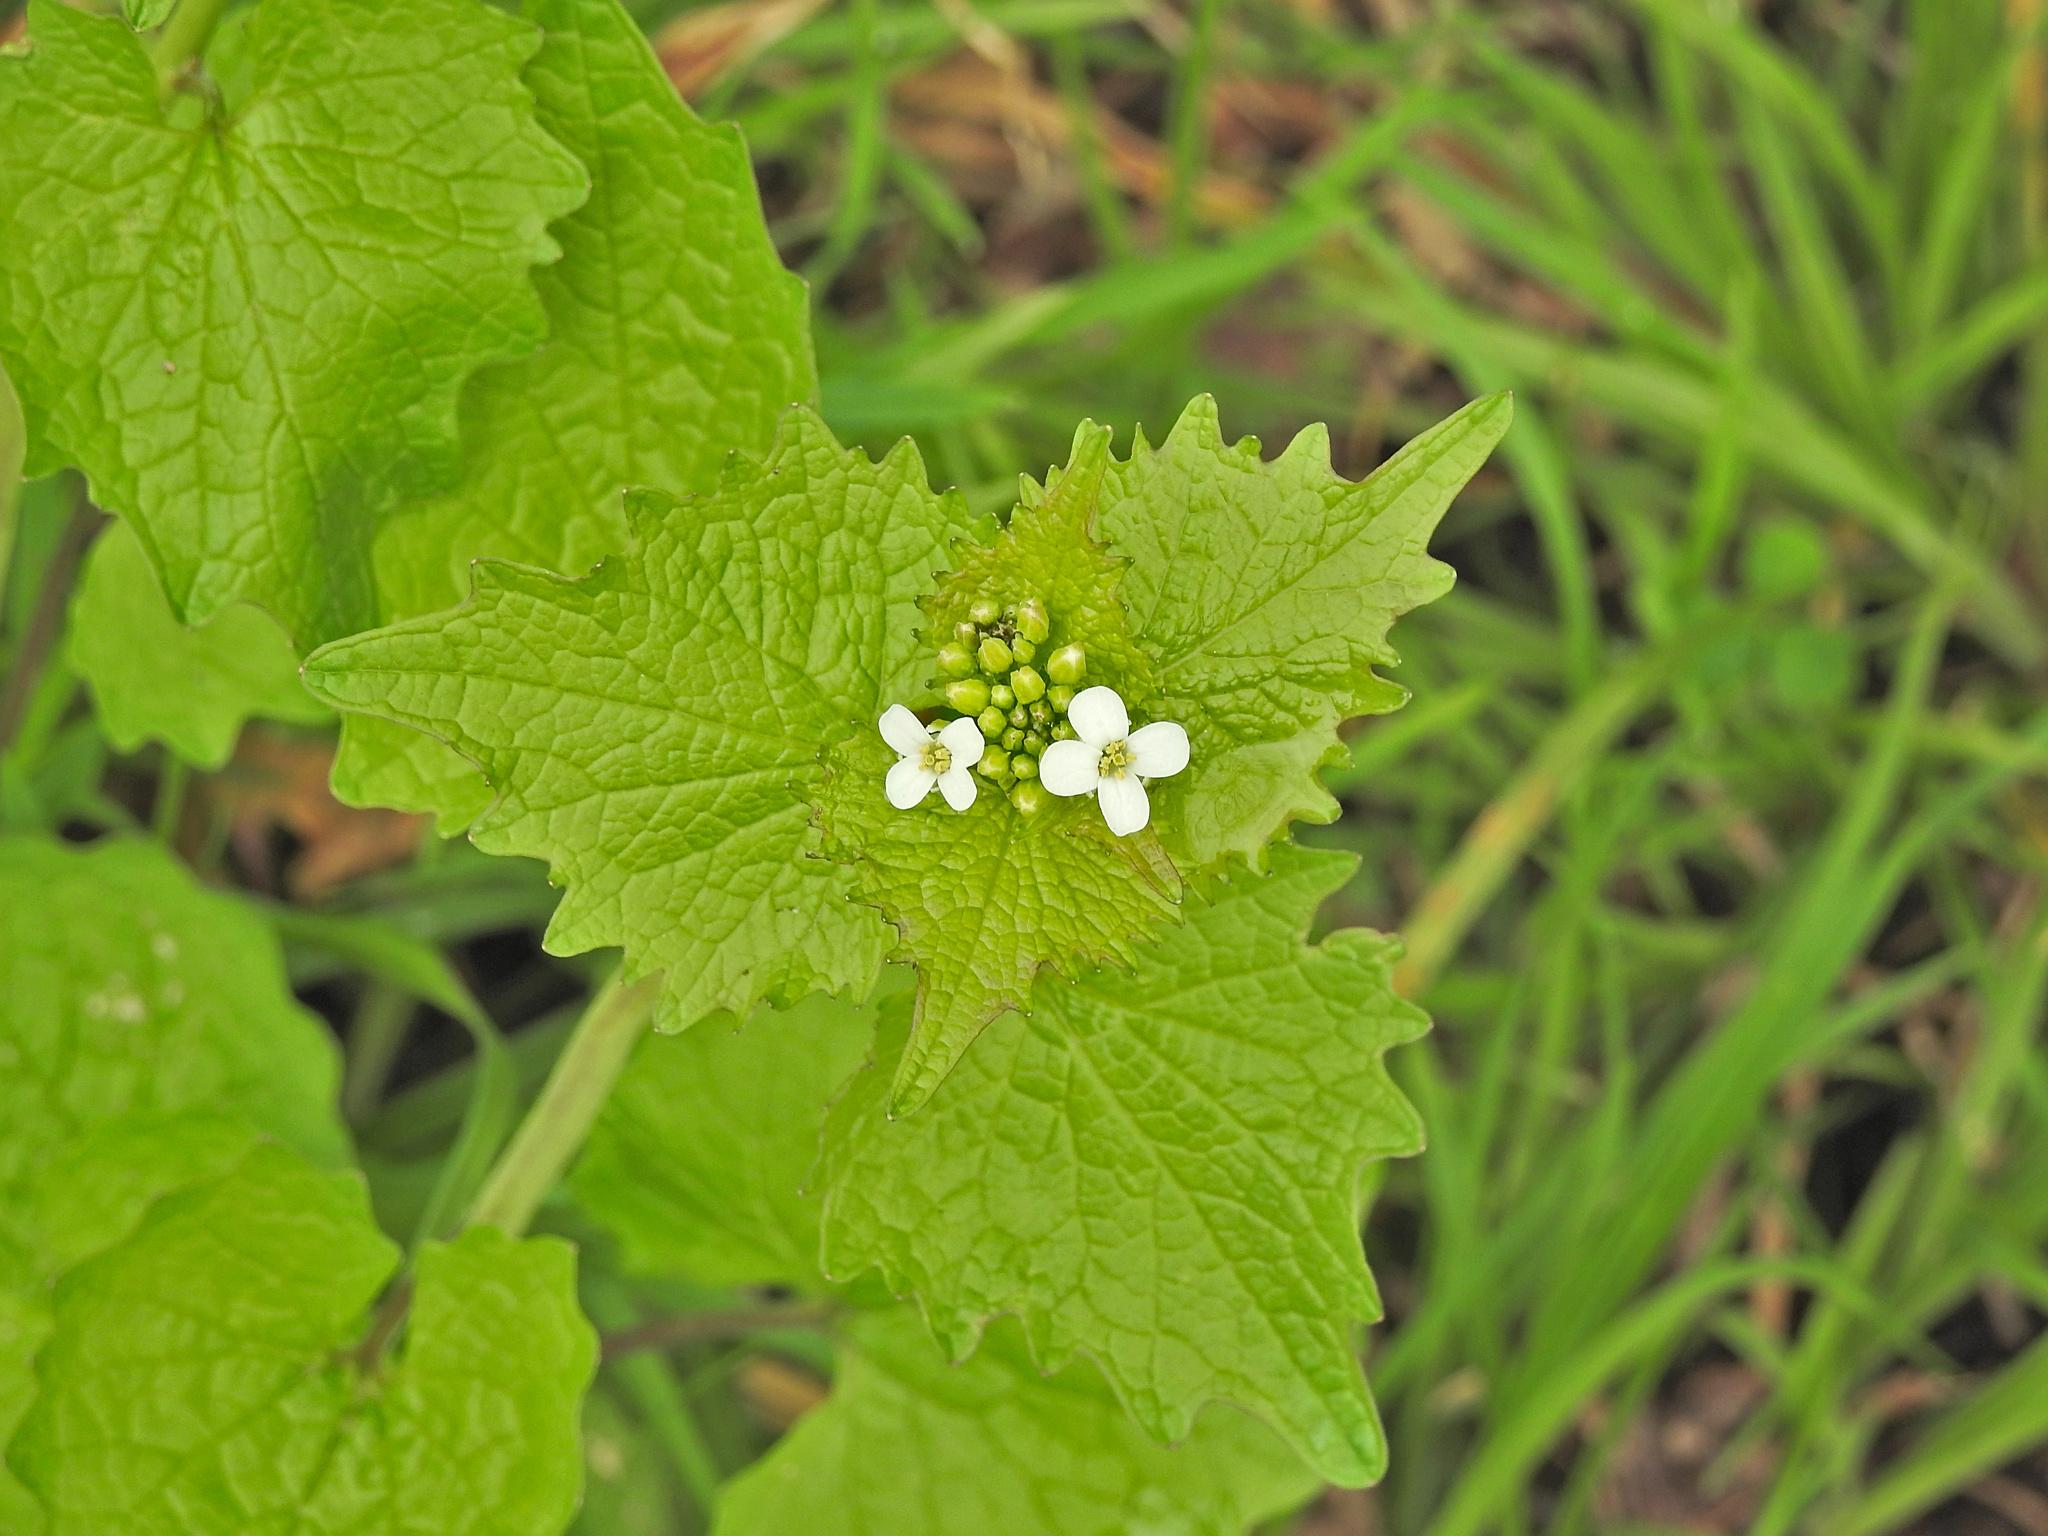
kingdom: Plantae
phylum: Tracheophyta
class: Magnoliopsida
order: Brassicales
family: Brassicaceae
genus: Alliaria
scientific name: Alliaria petiolata
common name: Garlic mustard
